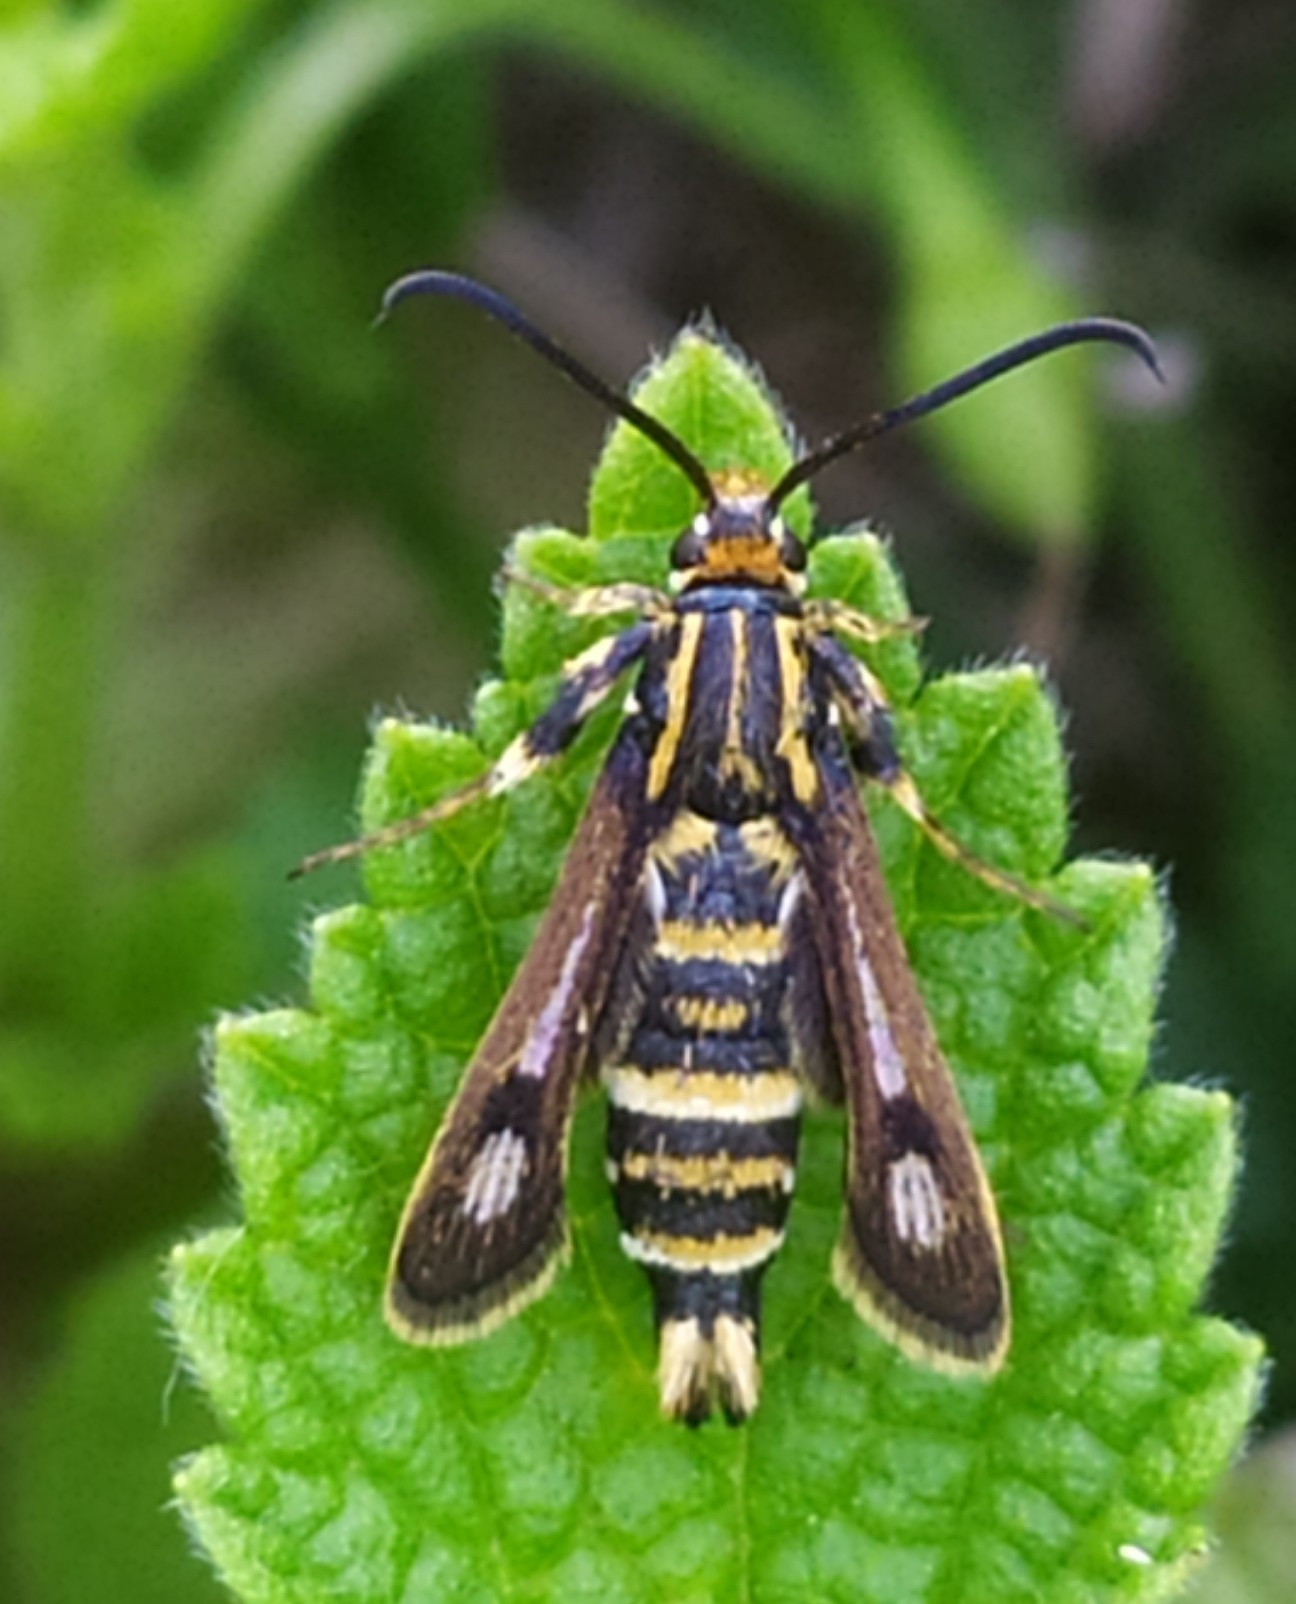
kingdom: Animalia
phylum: Arthropoda
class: Insecta
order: Lepidoptera
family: Sesiidae
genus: Chamaesphecia
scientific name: Chamaesphecia annellata
